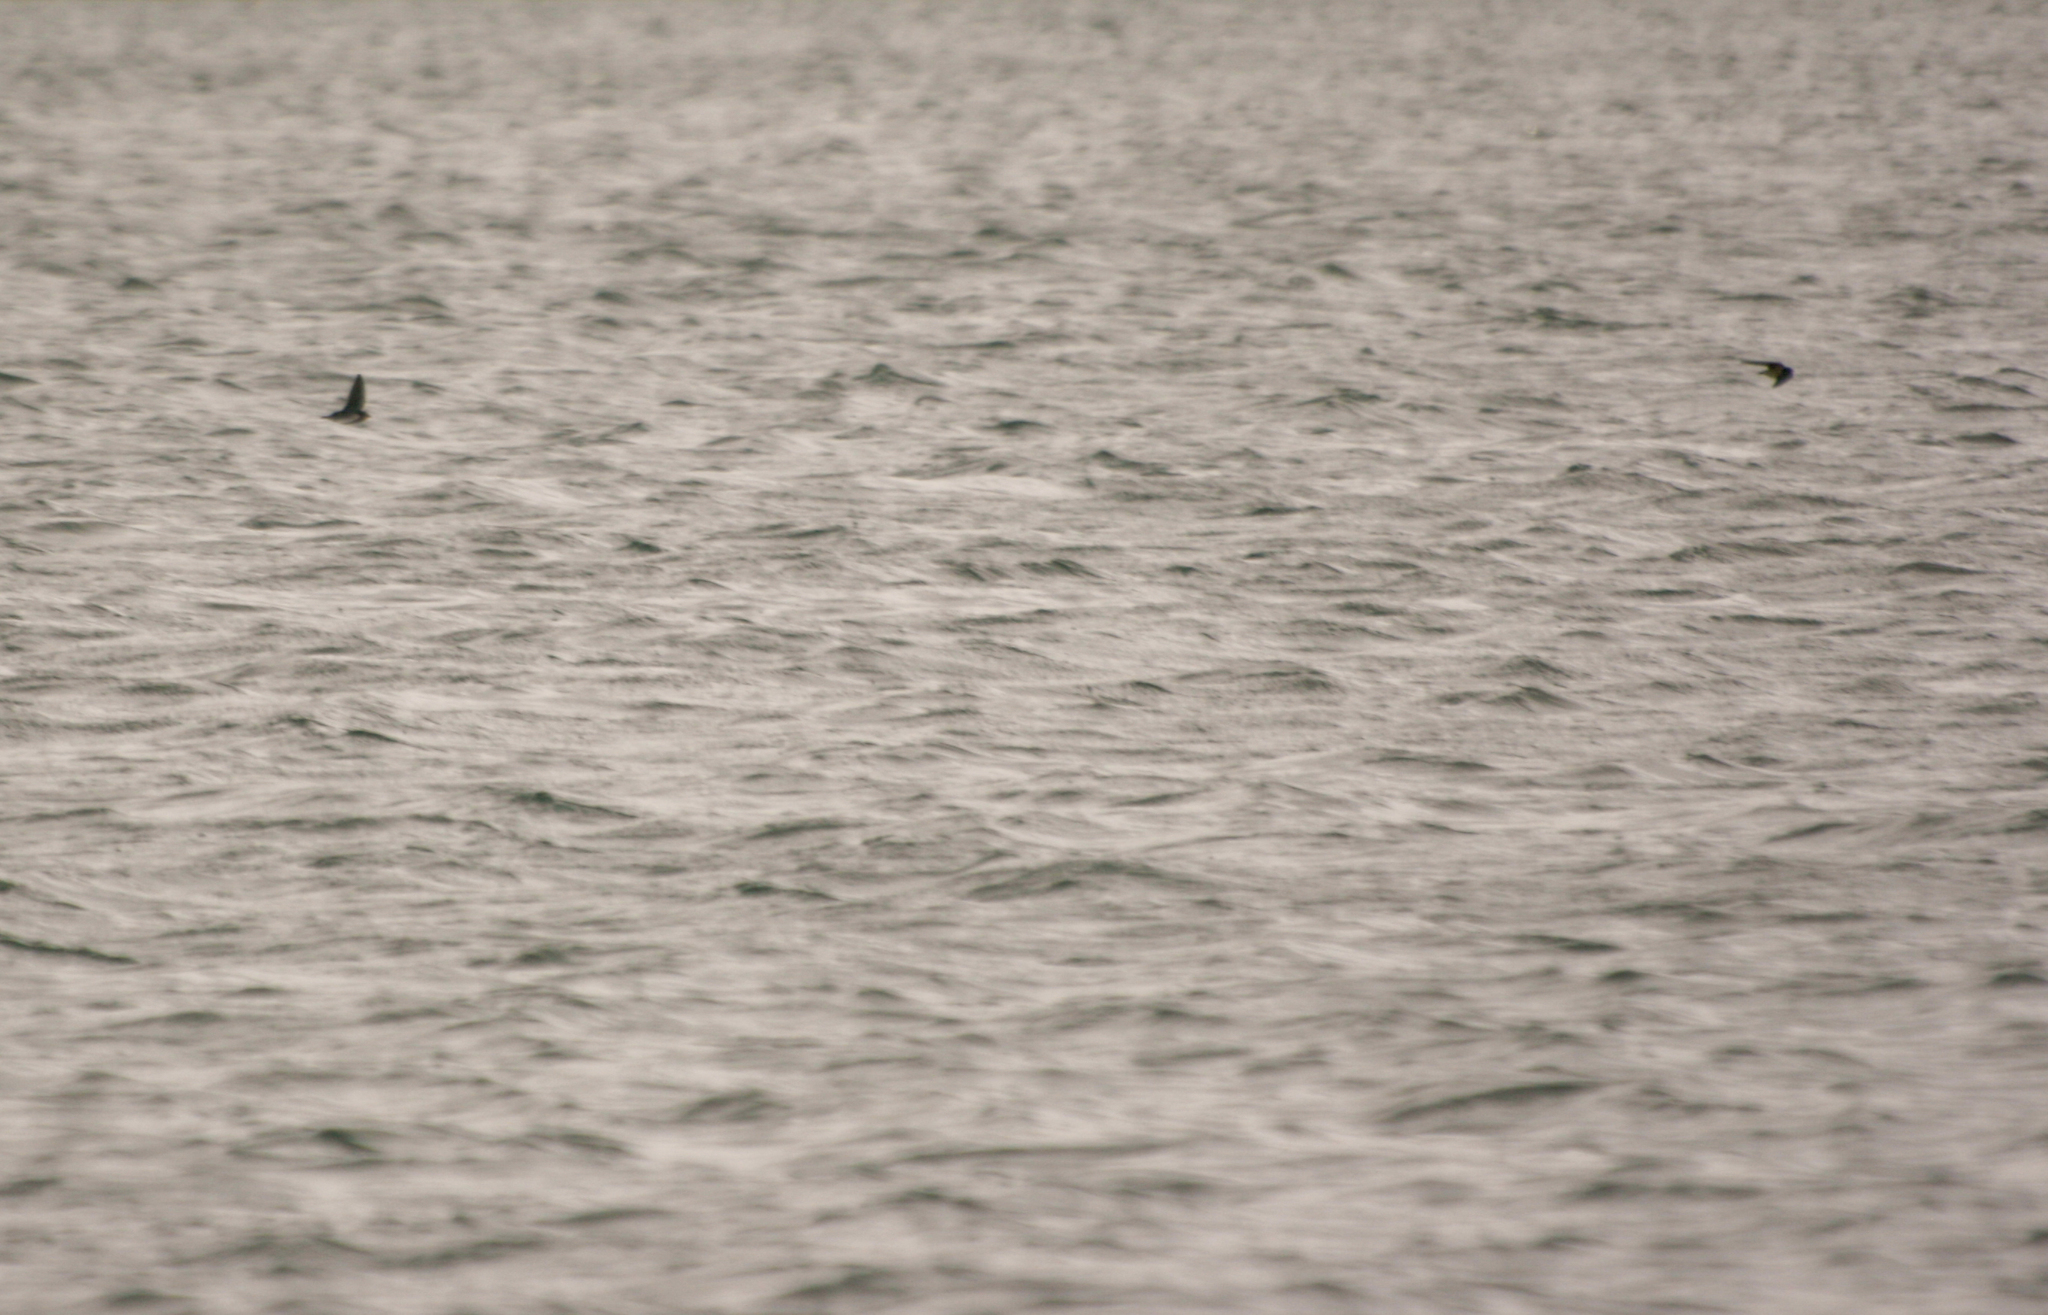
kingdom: Animalia
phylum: Chordata
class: Aves
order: Passeriformes
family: Hirundinidae
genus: Hirundo
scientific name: Hirundo rustica
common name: Barn swallow
